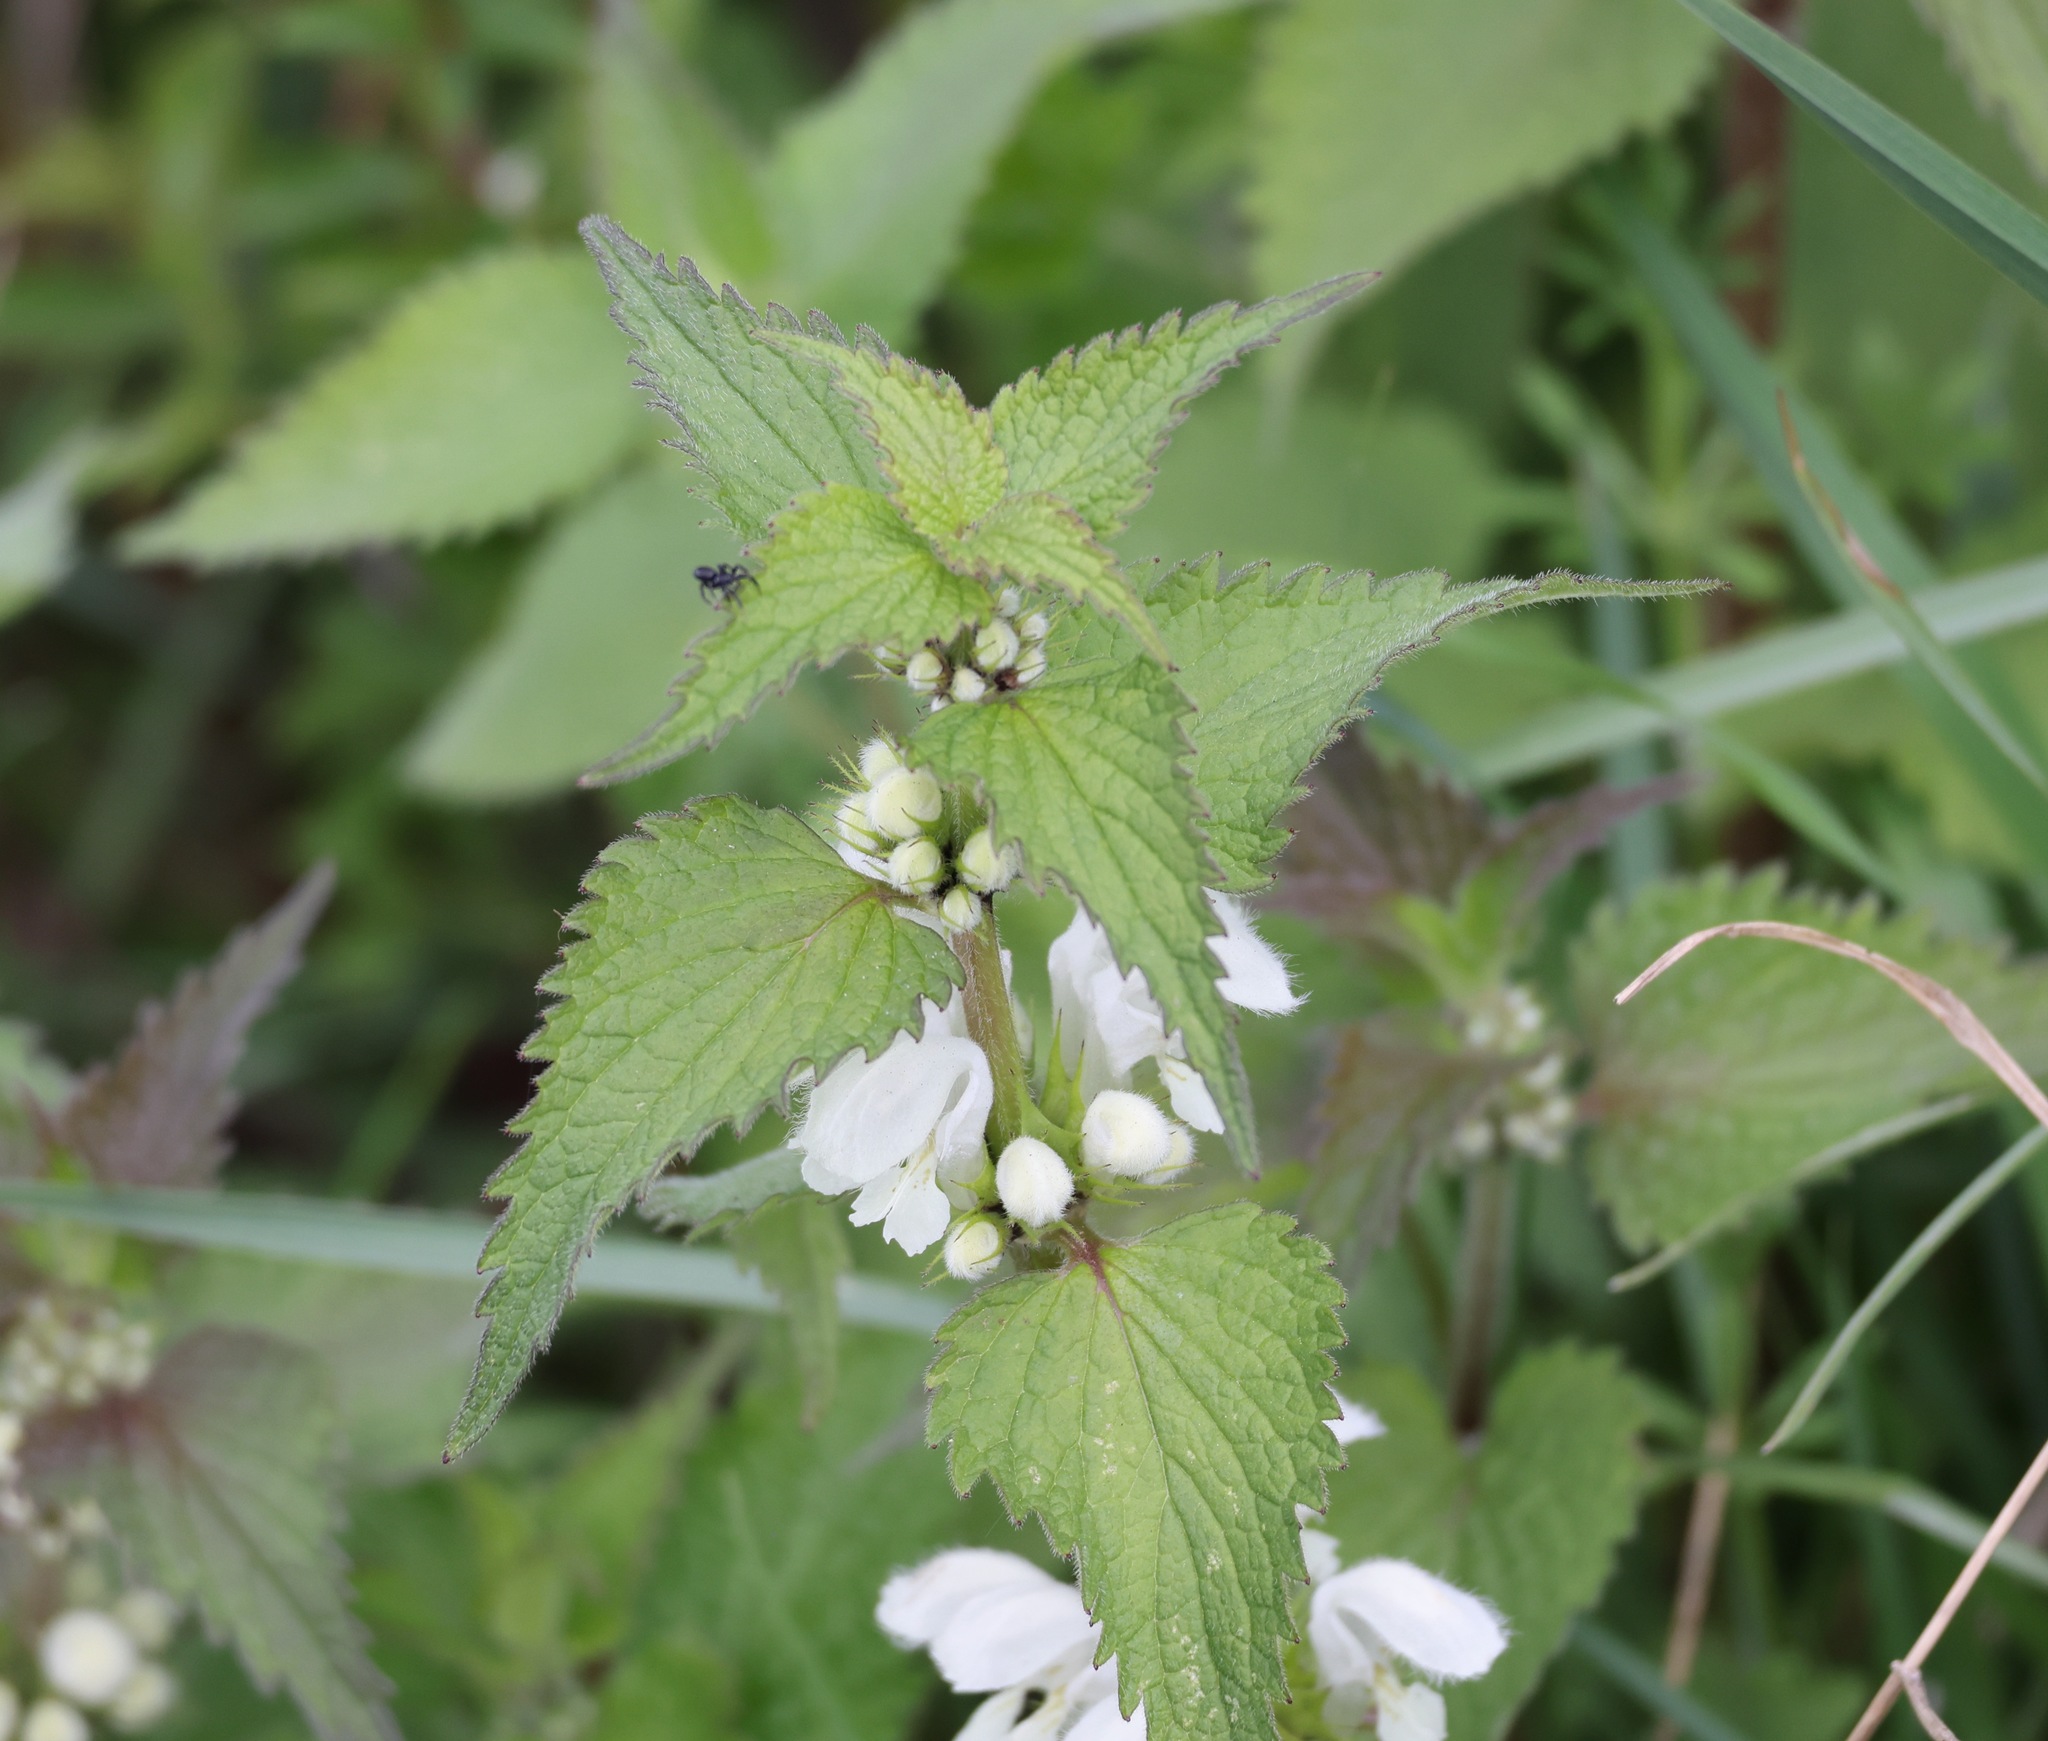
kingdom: Plantae
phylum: Tracheophyta
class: Magnoliopsida
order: Lamiales
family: Lamiaceae
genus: Lamium
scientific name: Lamium album
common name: White dead-nettle
